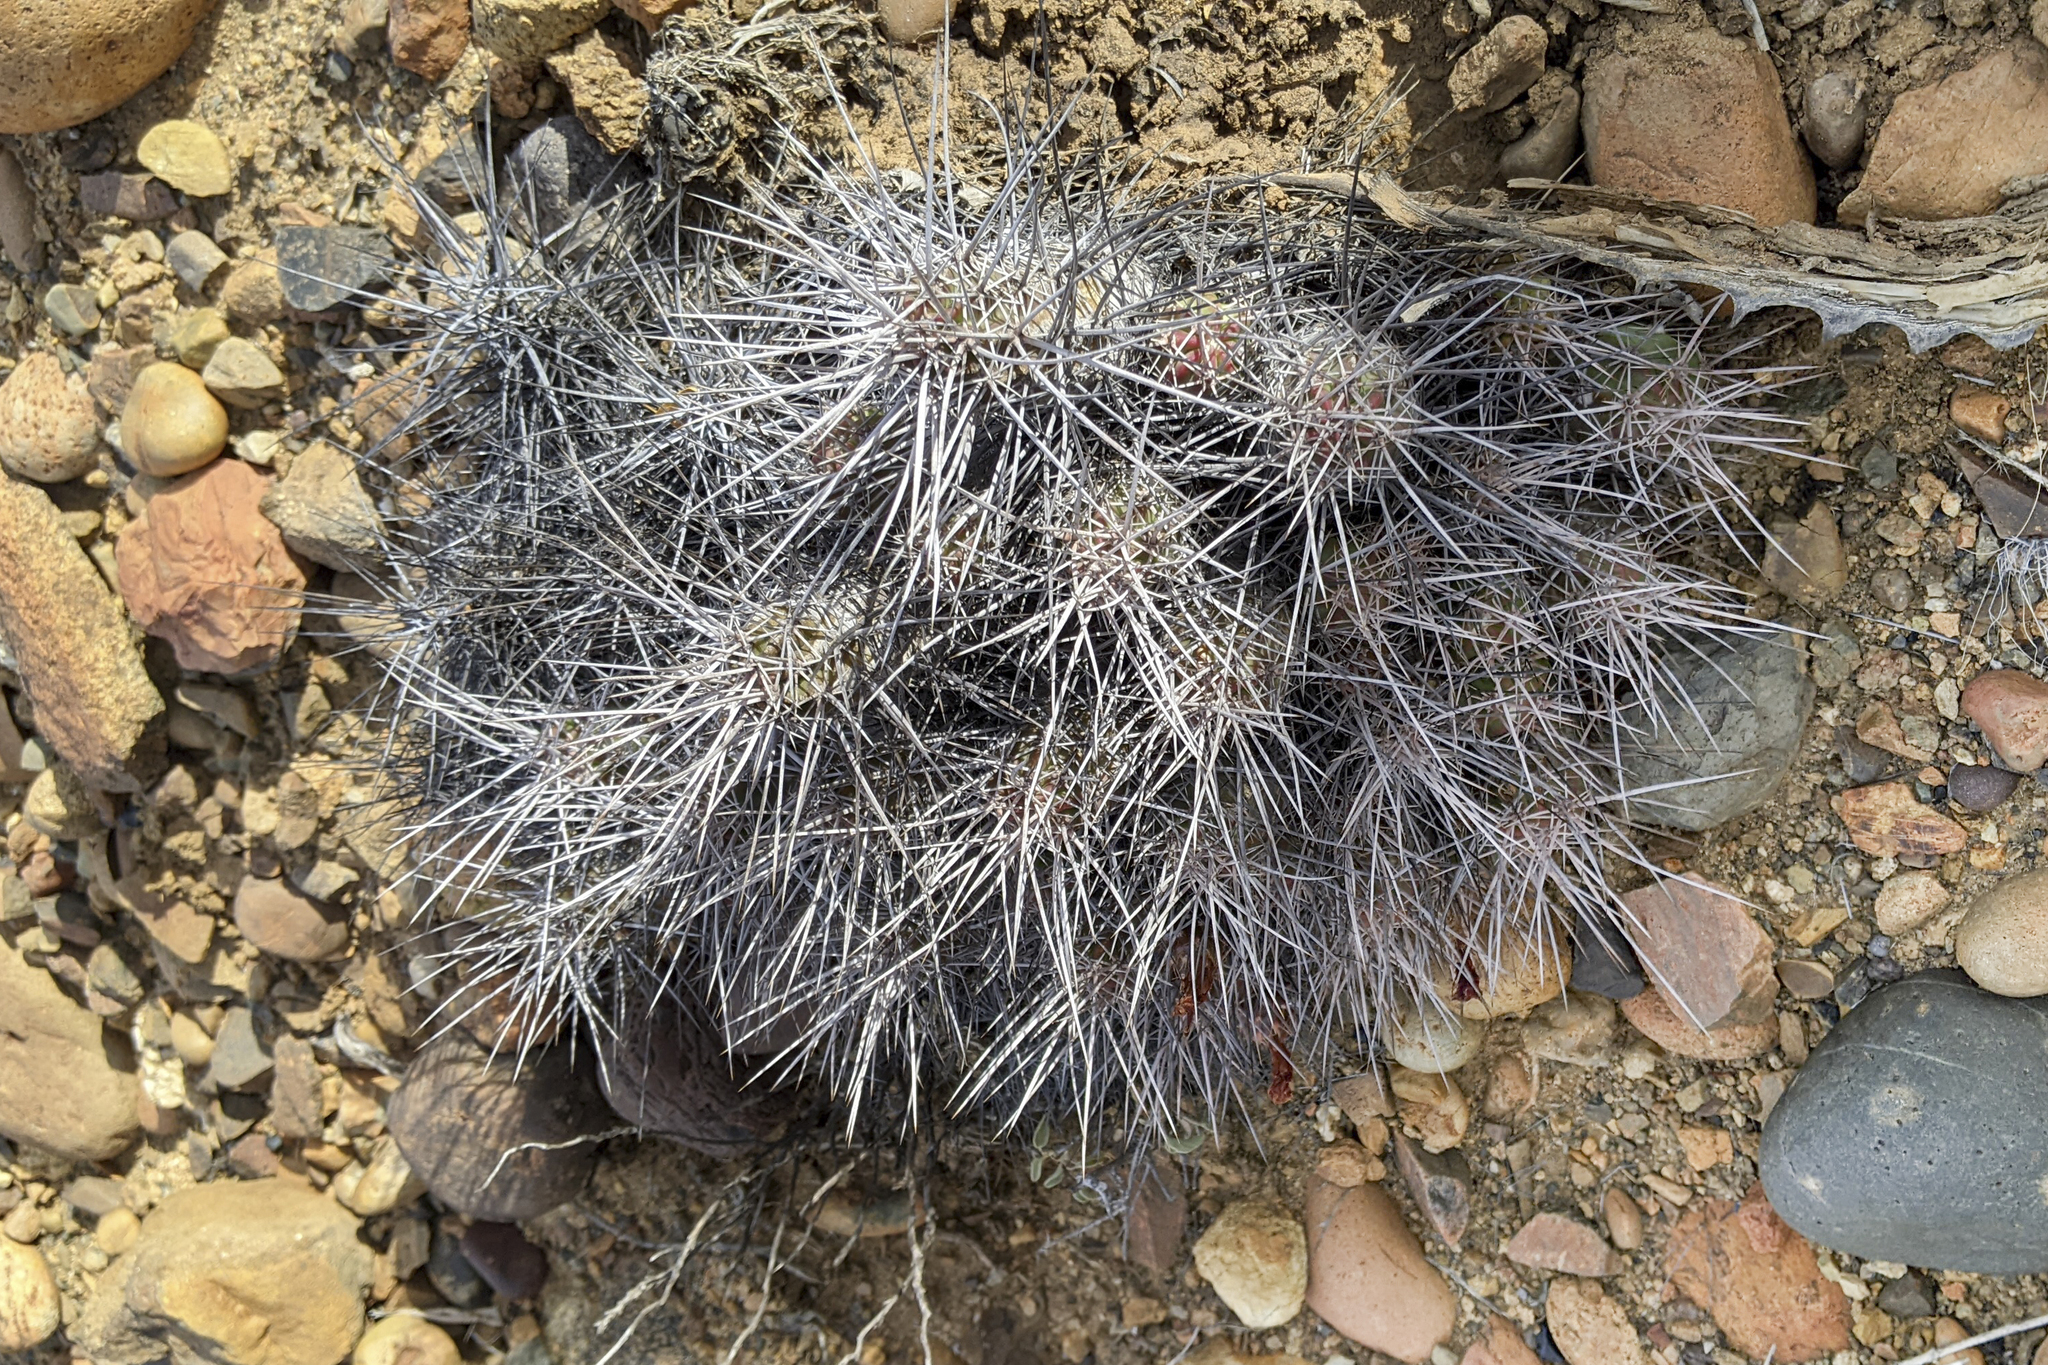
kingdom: Plantae
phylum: Tracheophyta
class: Magnoliopsida
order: Caryophyllales
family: Cactaceae
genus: Echinocereus
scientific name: Echinocereus maritimus
